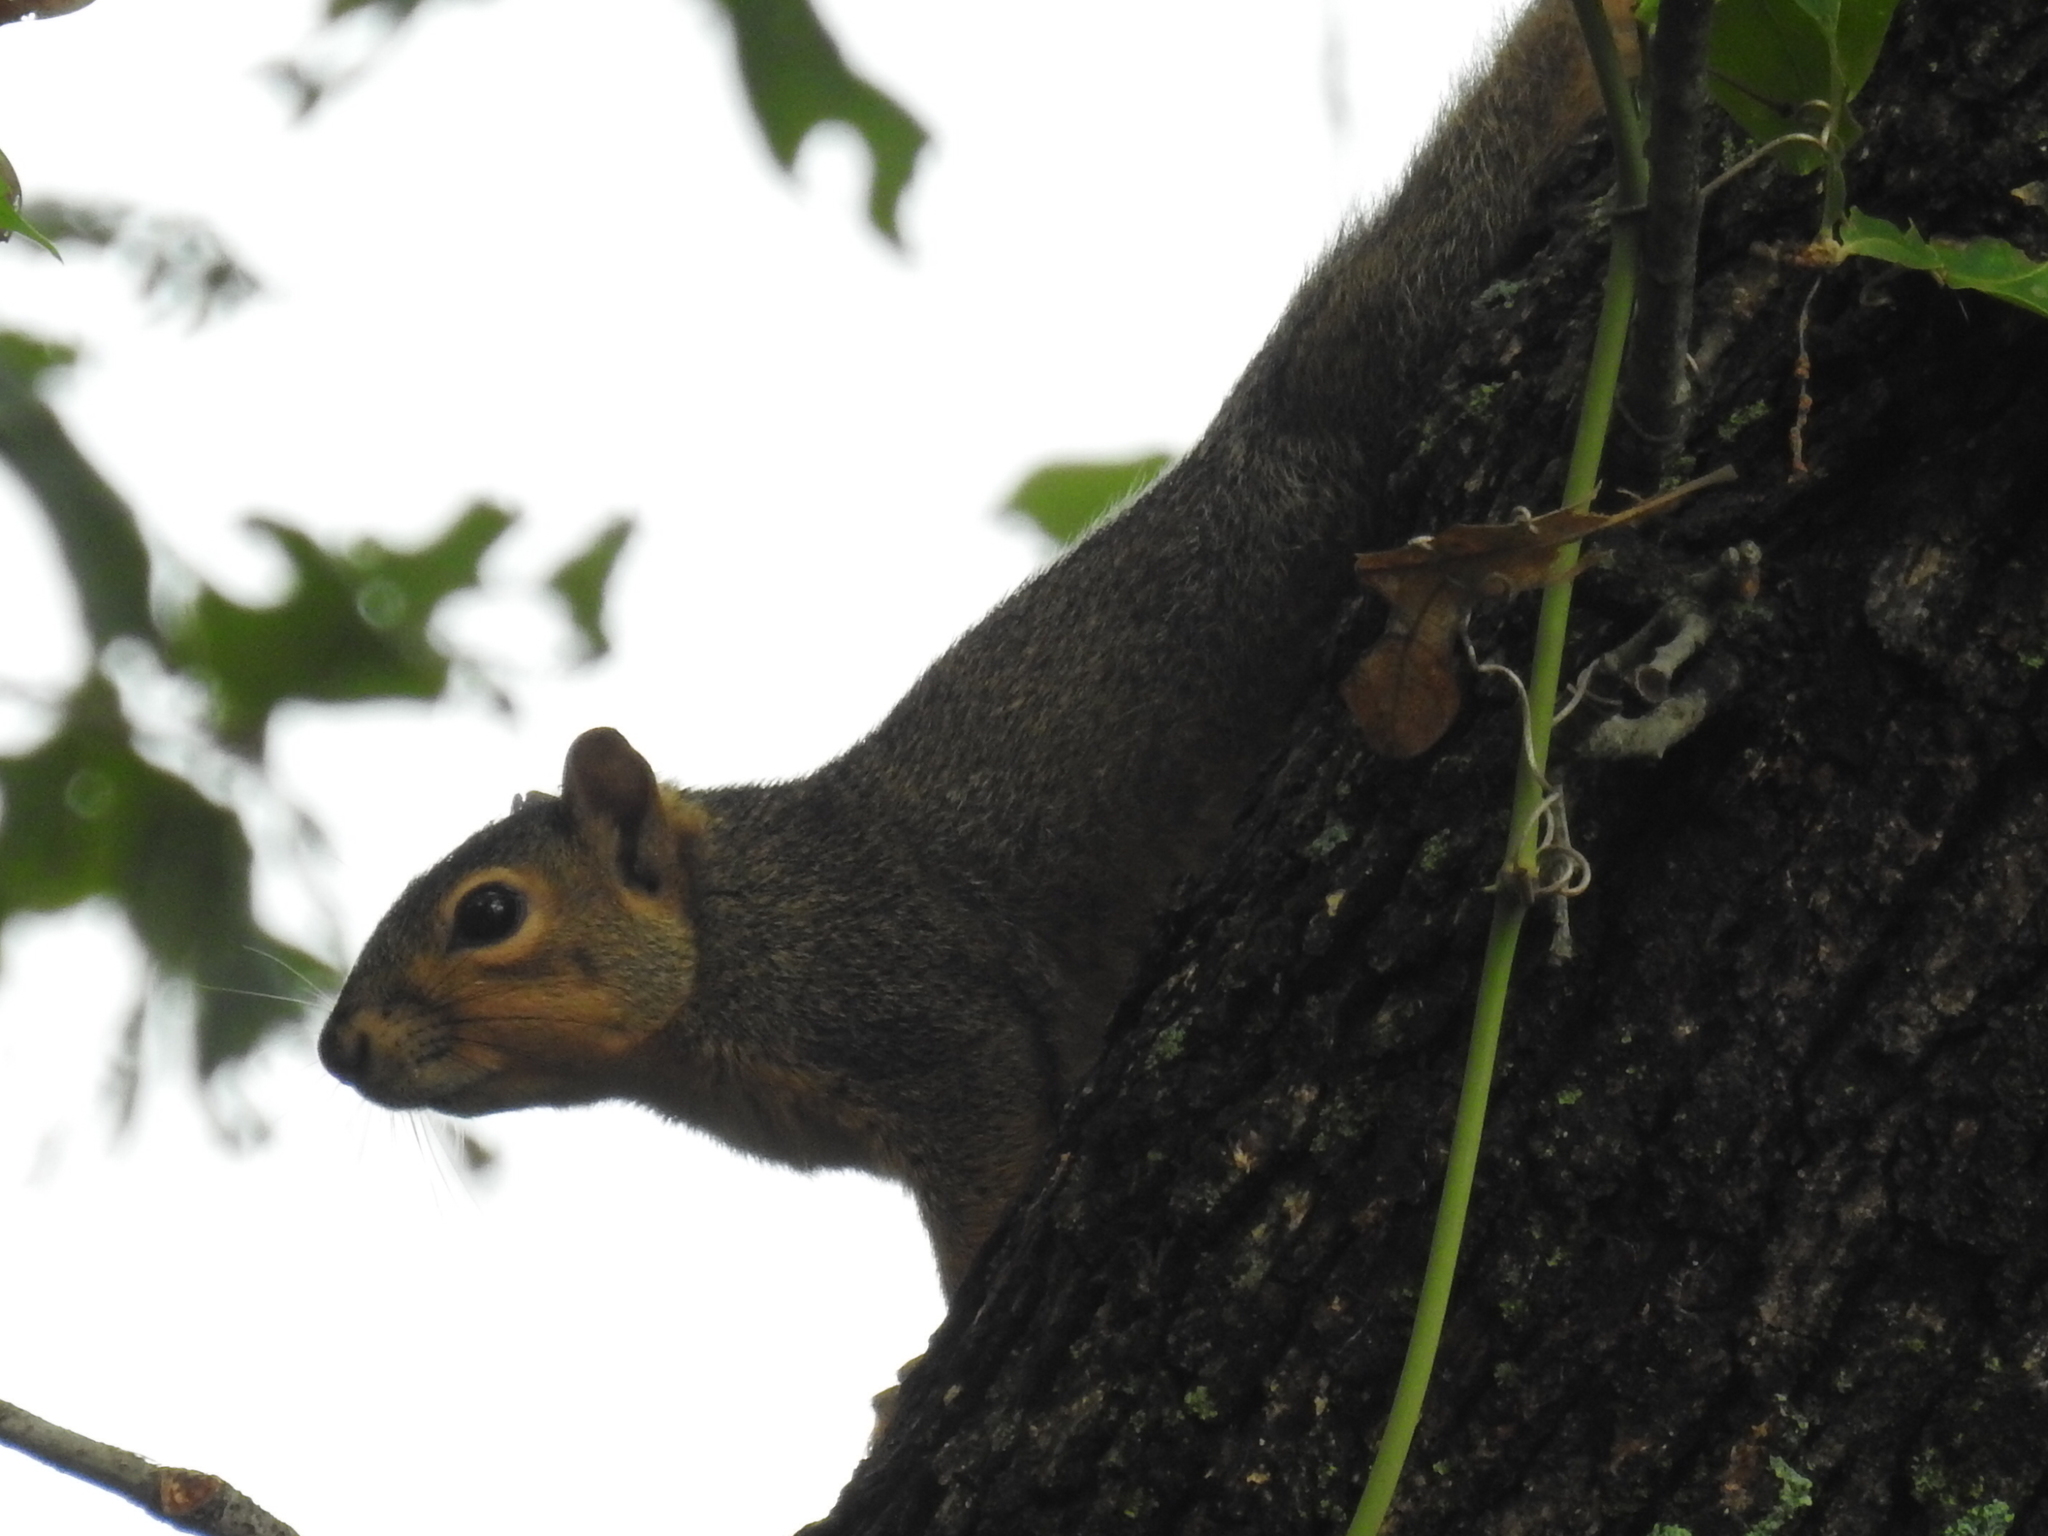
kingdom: Animalia
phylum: Chordata
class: Mammalia
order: Rodentia
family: Sciuridae
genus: Sciurus
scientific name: Sciurus niger
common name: Fox squirrel
